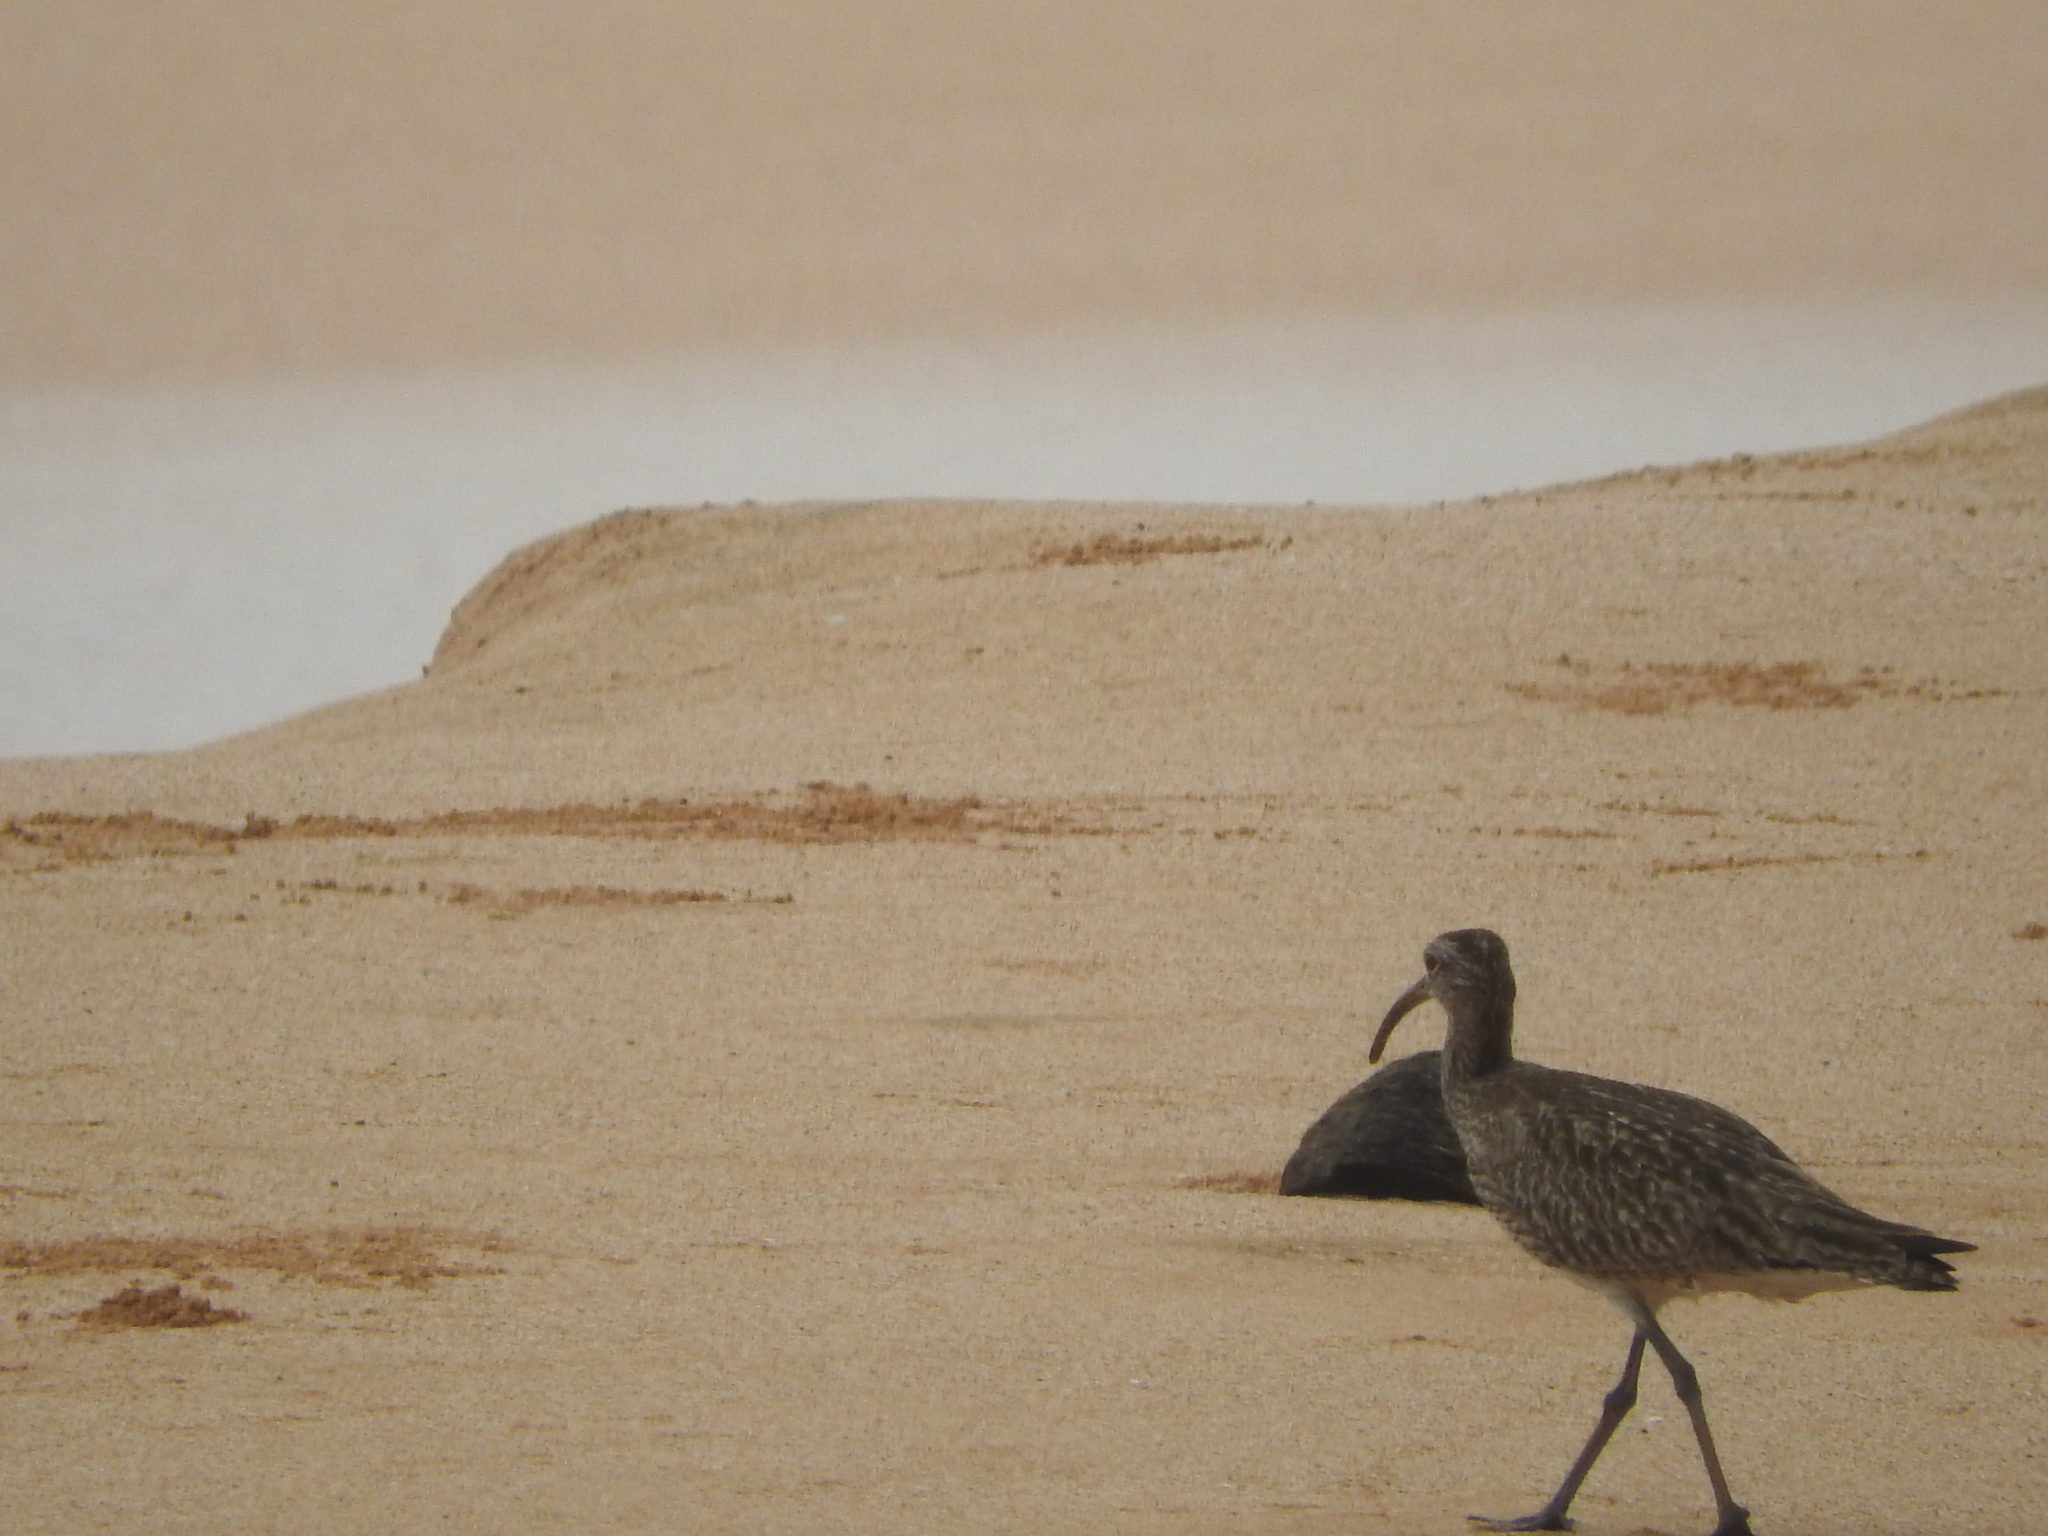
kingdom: Animalia
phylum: Chordata
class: Aves
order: Charadriiformes
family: Scolopacidae
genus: Numenius
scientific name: Numenius phaeopus
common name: Whimbrel
